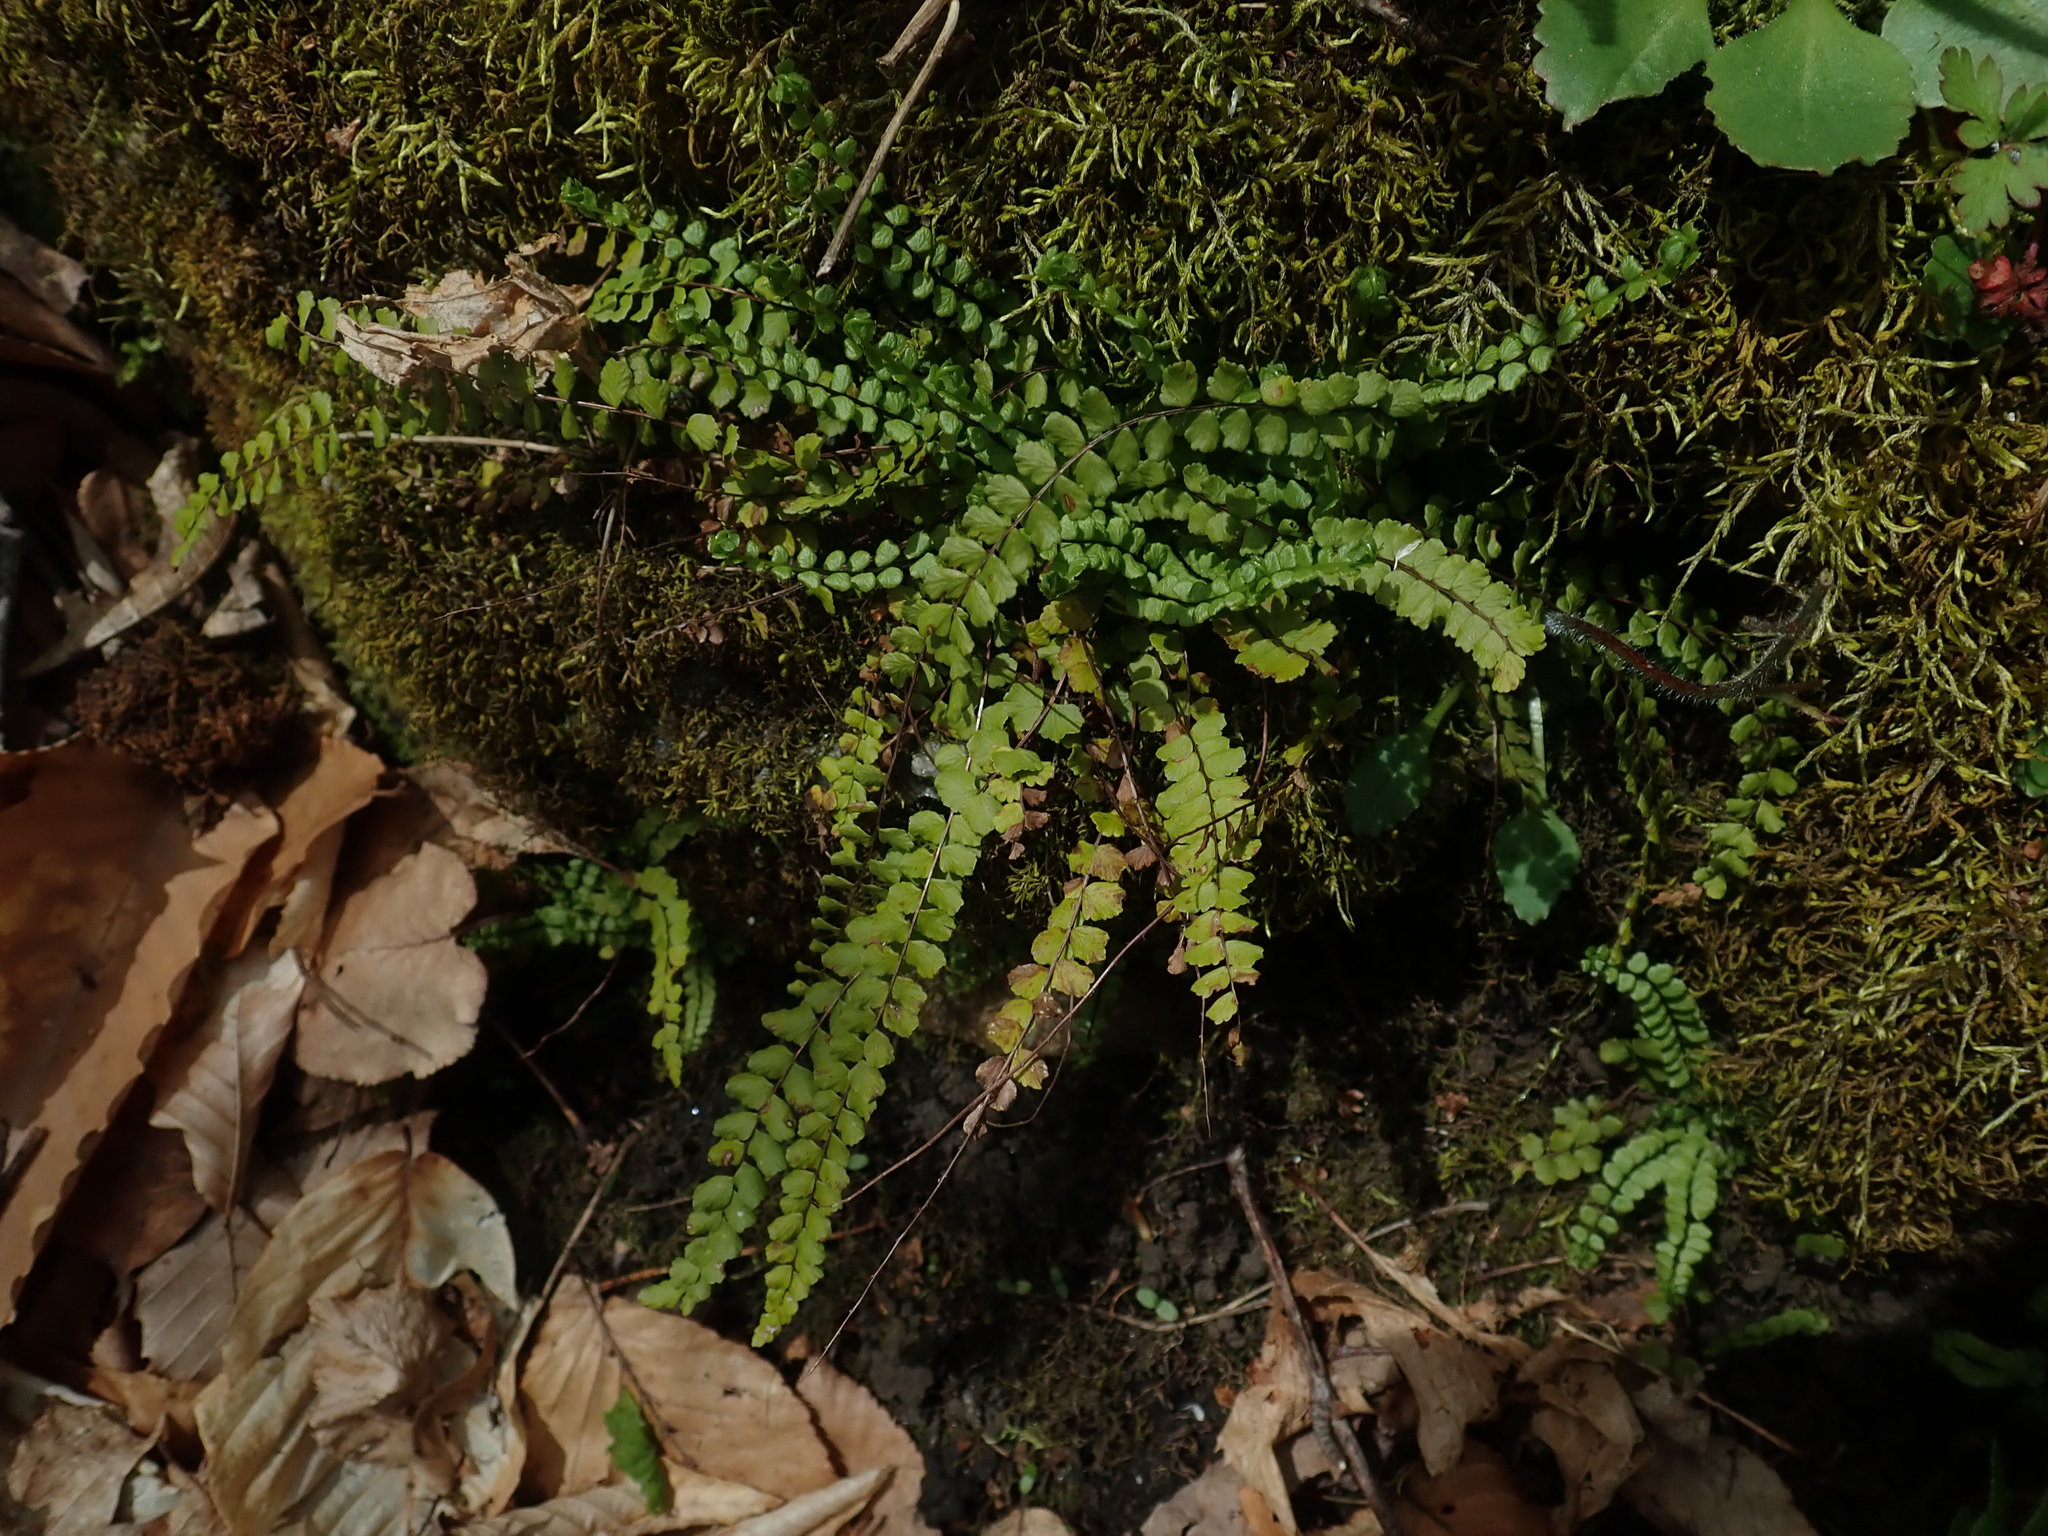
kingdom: Plantae
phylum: Tracheophyta
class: Polypodiopsida
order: Polypodiales
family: Aspleniaceae
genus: Asplenium
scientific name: Asplenium trichomanes
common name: Maidenhair spleenwort
